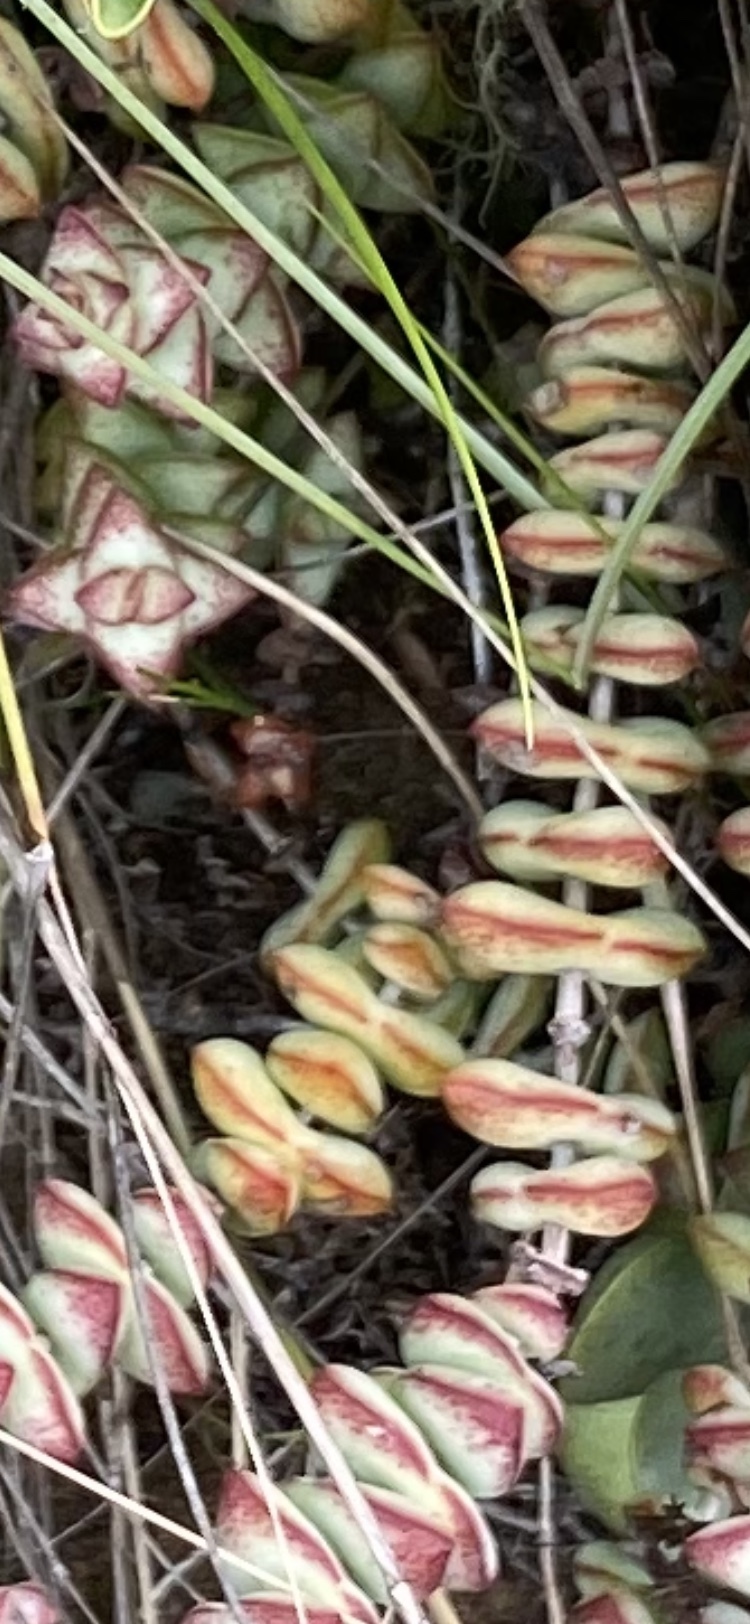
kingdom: Plantae
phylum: Tracheophyta
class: Magnoliopsida
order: Saxifragales
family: Crassulaceae
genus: Crassula
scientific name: Crassula perforata
